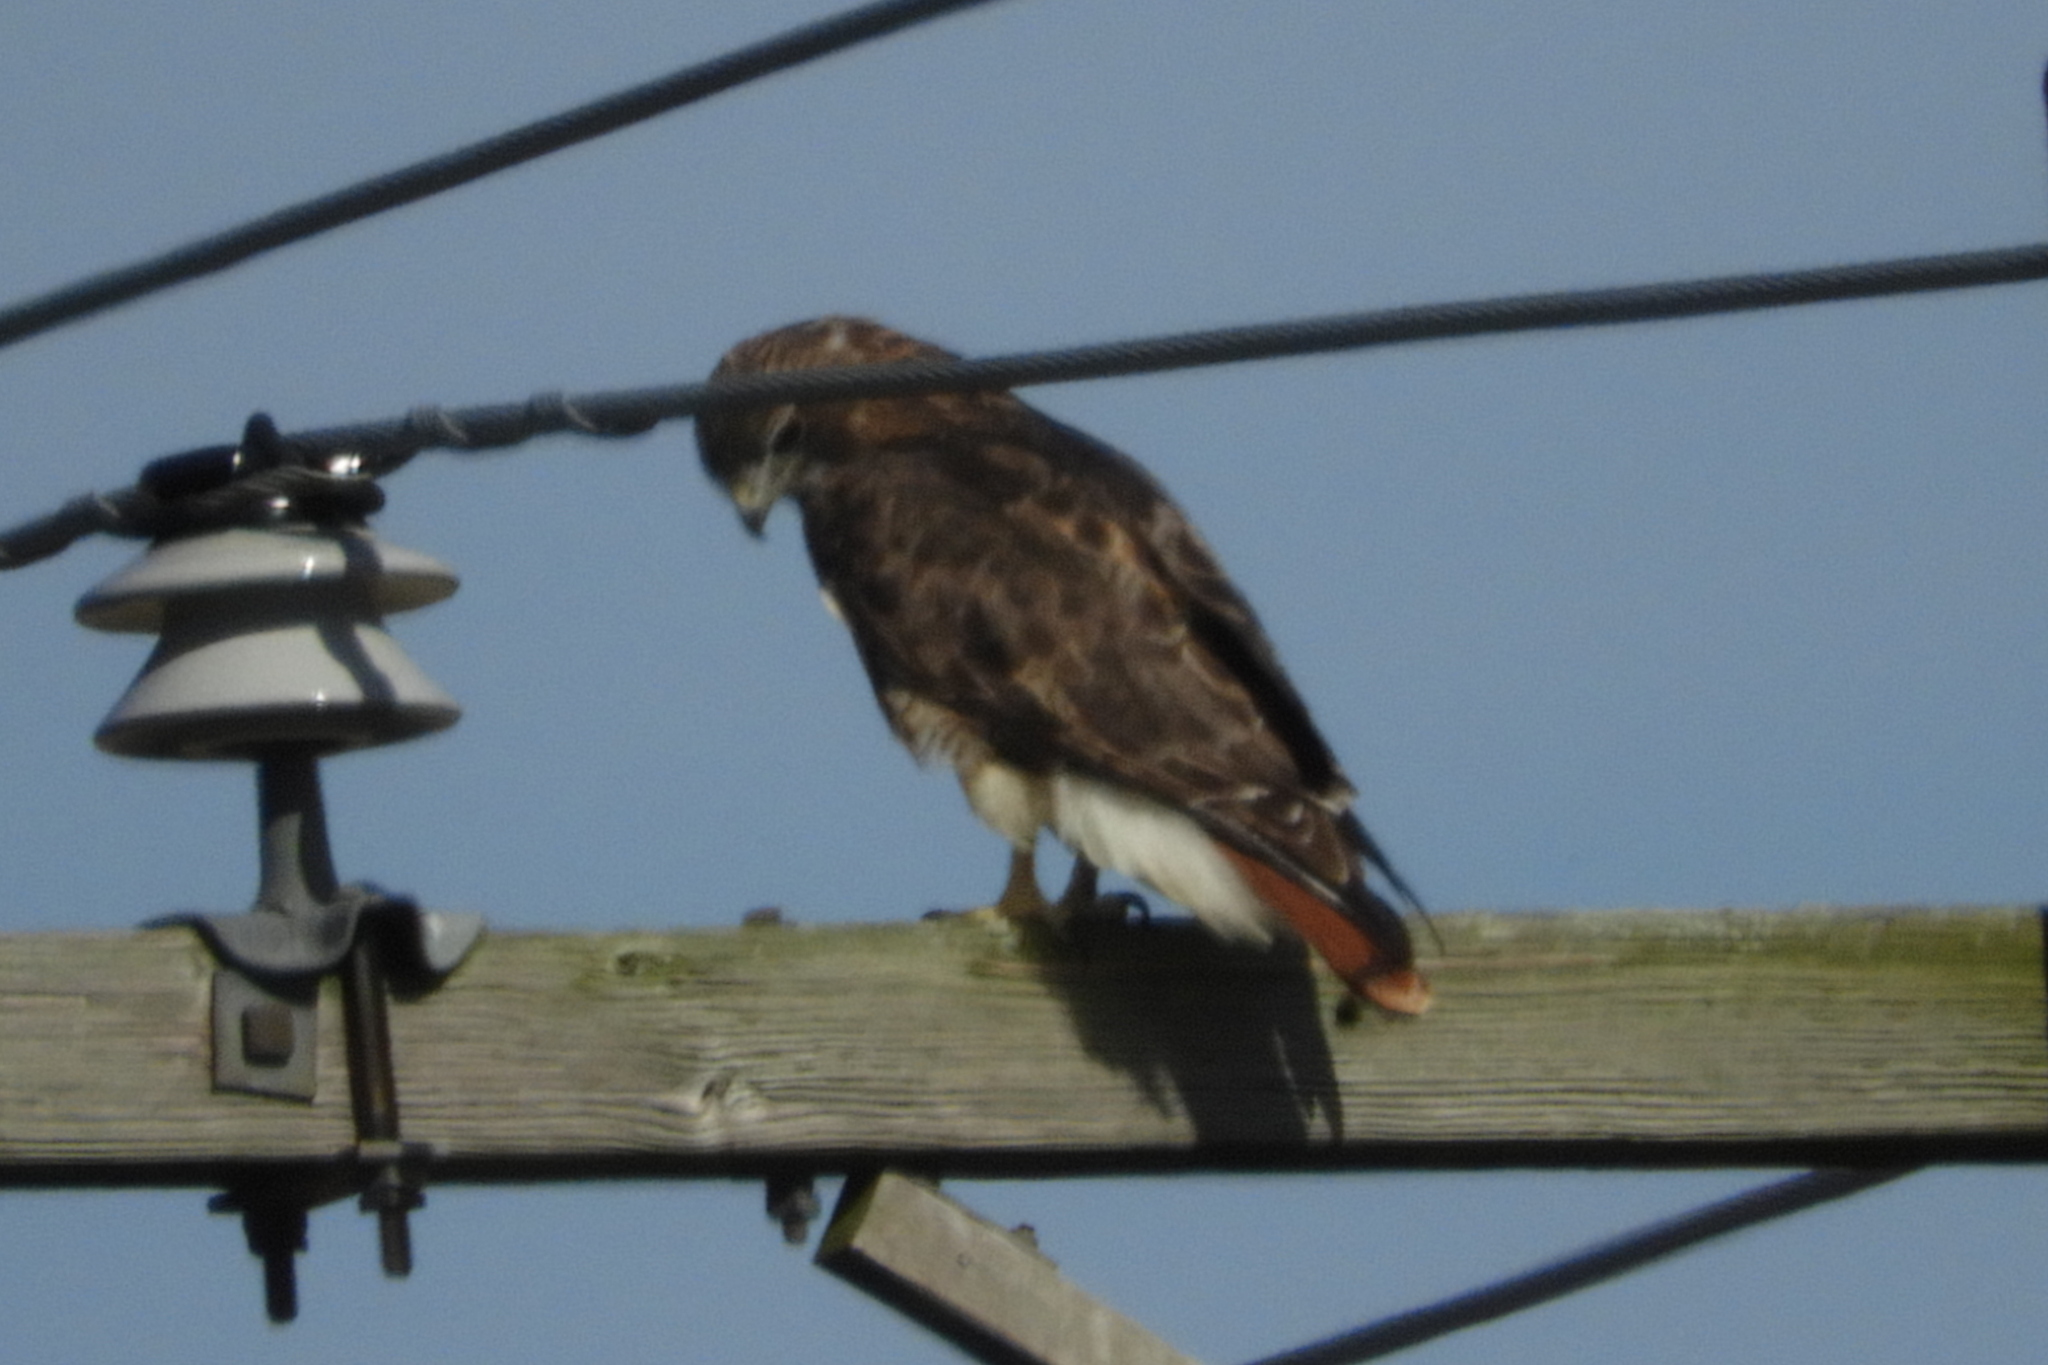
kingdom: Animalia
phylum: Chordata
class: Aves
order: Accipitriformes
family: Accipitridae
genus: Buteo
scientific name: Buteo jamaicensis
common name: Red-tailed hawk
